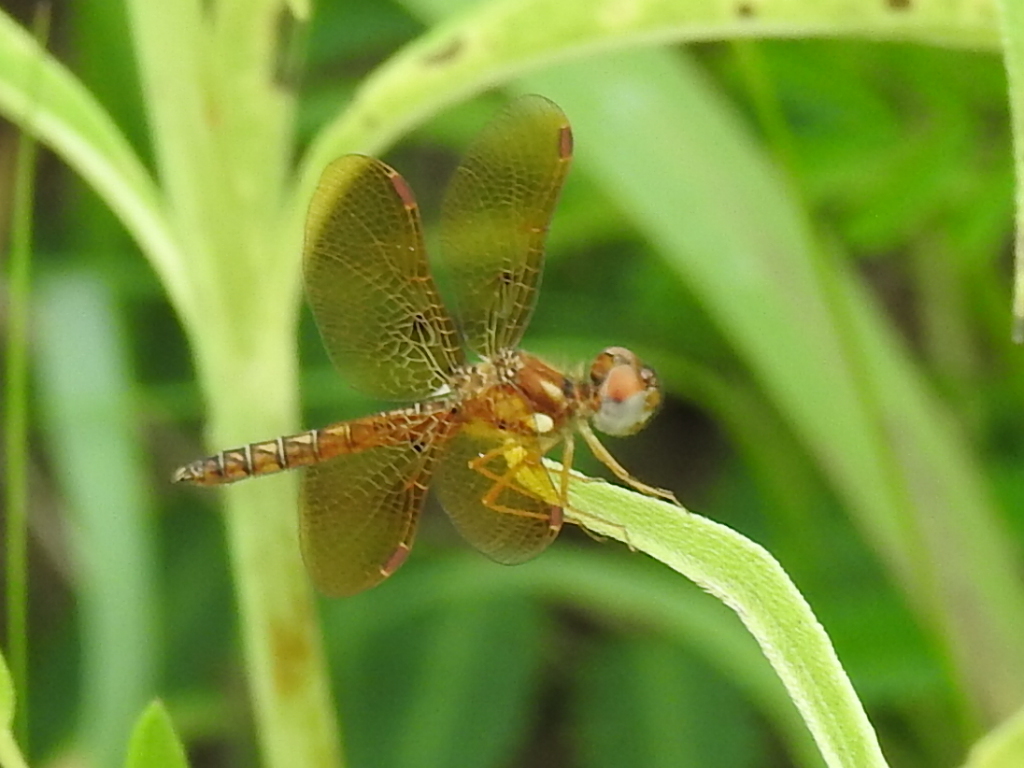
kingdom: Animalia
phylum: Arthropoda
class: Insecta
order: Odonata
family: Libellulidae
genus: Perithemis
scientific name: Perithemis tenera
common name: Eastern amberwing
